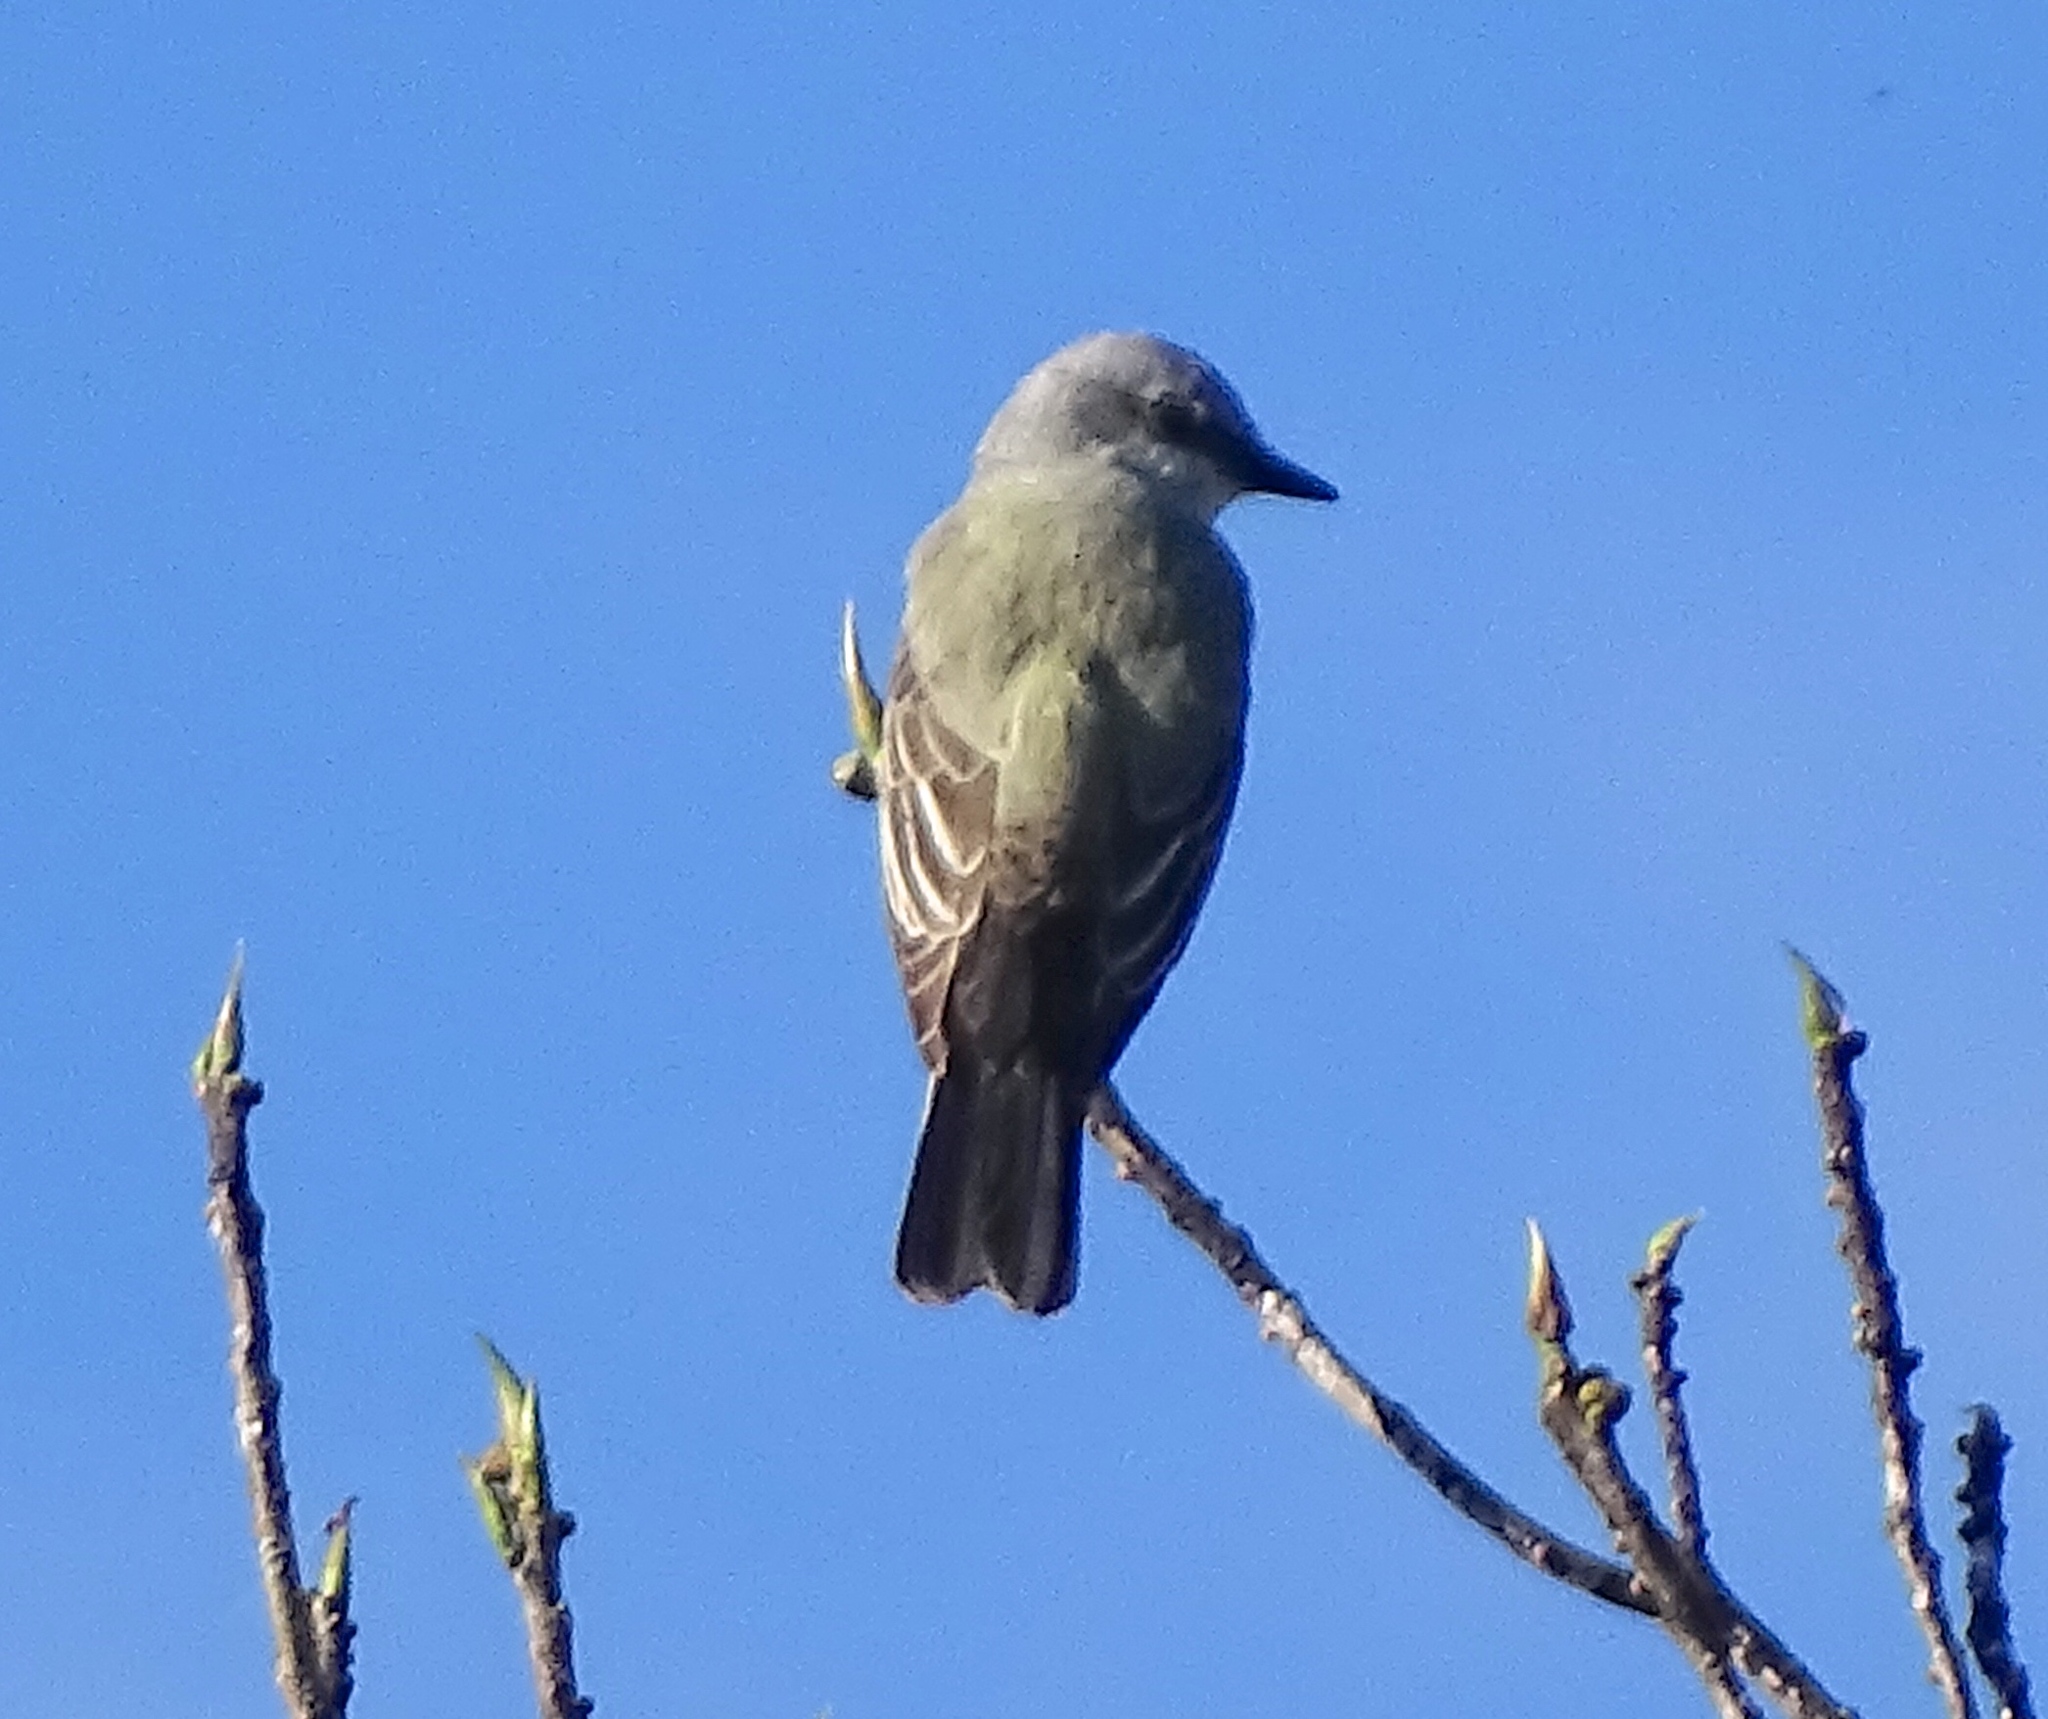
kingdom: Animalia
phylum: Chordata
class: Aves
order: Passeriformes
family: Tyrannidae
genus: Tyrannus
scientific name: Tyrannus verticalis
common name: Western kingbird
